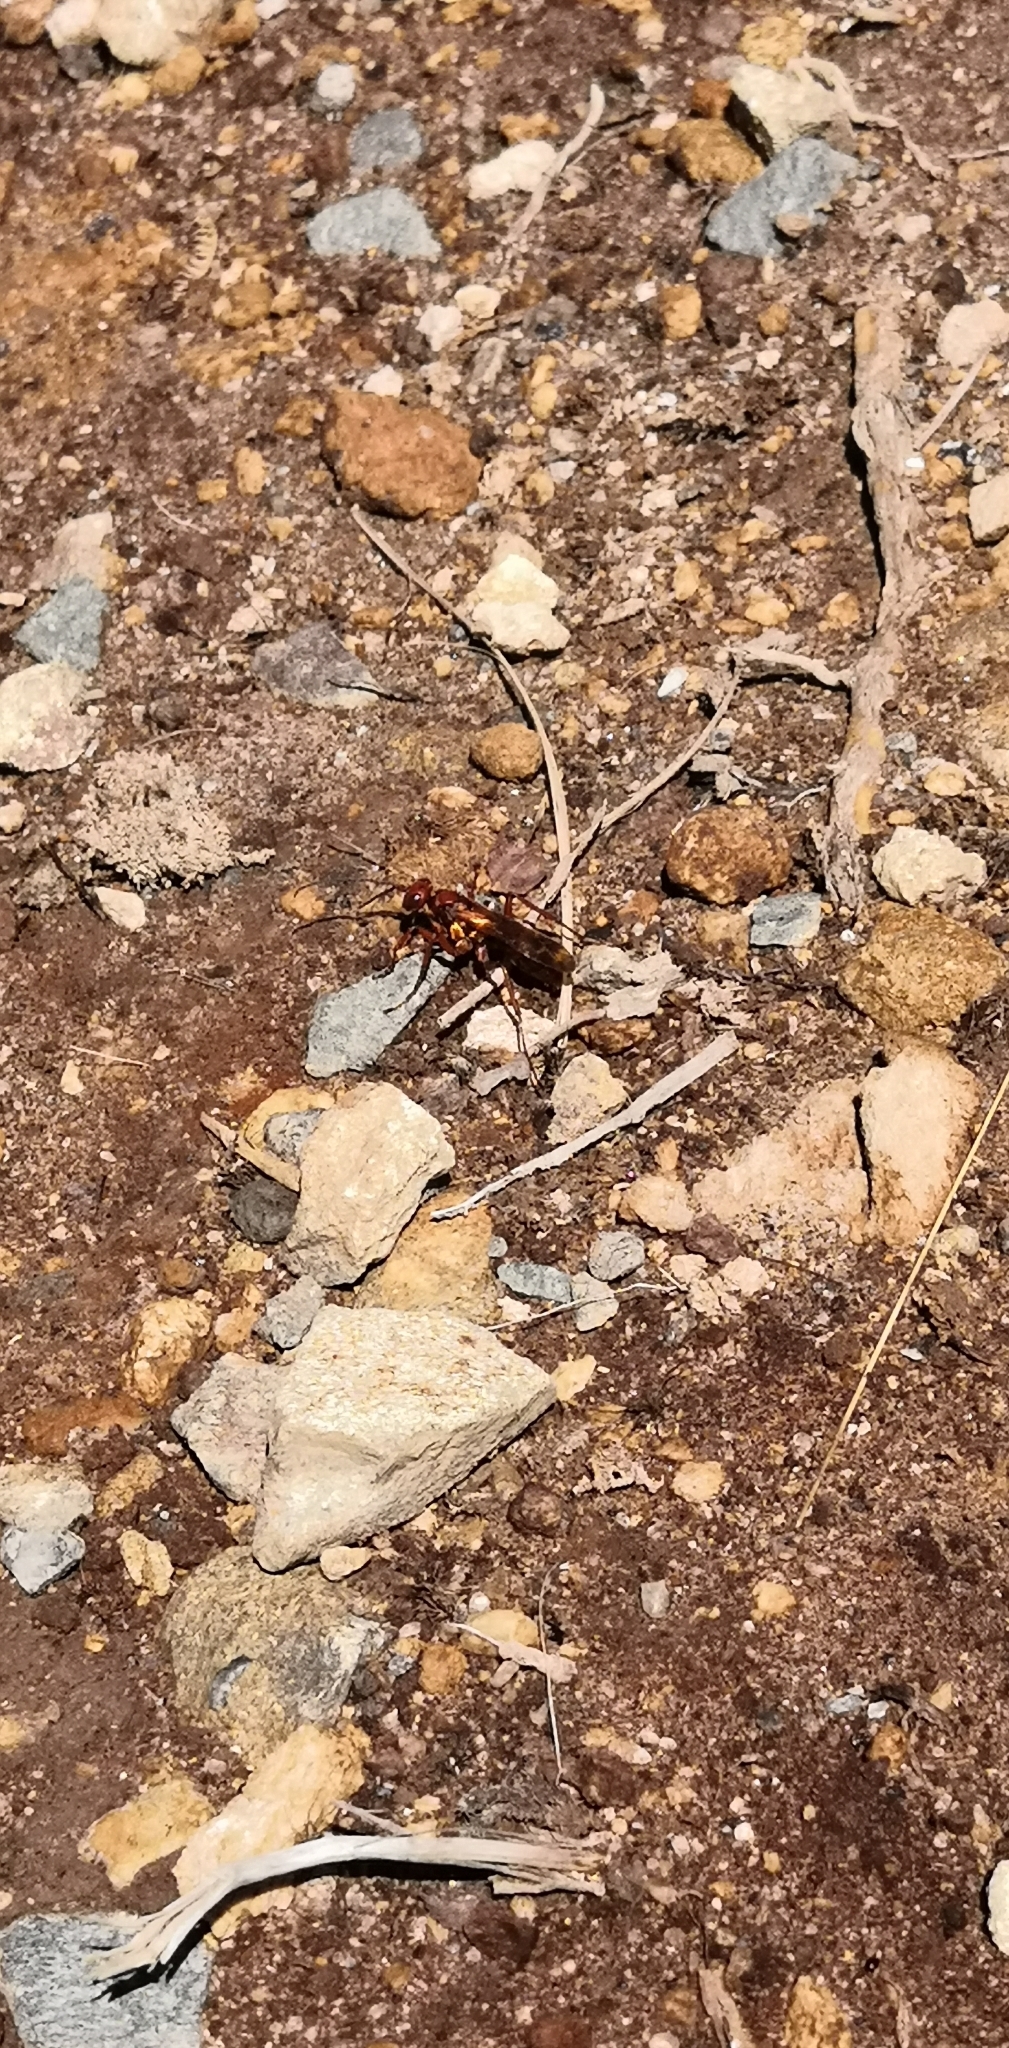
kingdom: Animalia
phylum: Arthropoda
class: Insecta
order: Hymenoptera
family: Pompilidae
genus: Sphictostethus
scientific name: Sphictostethus nitidus
